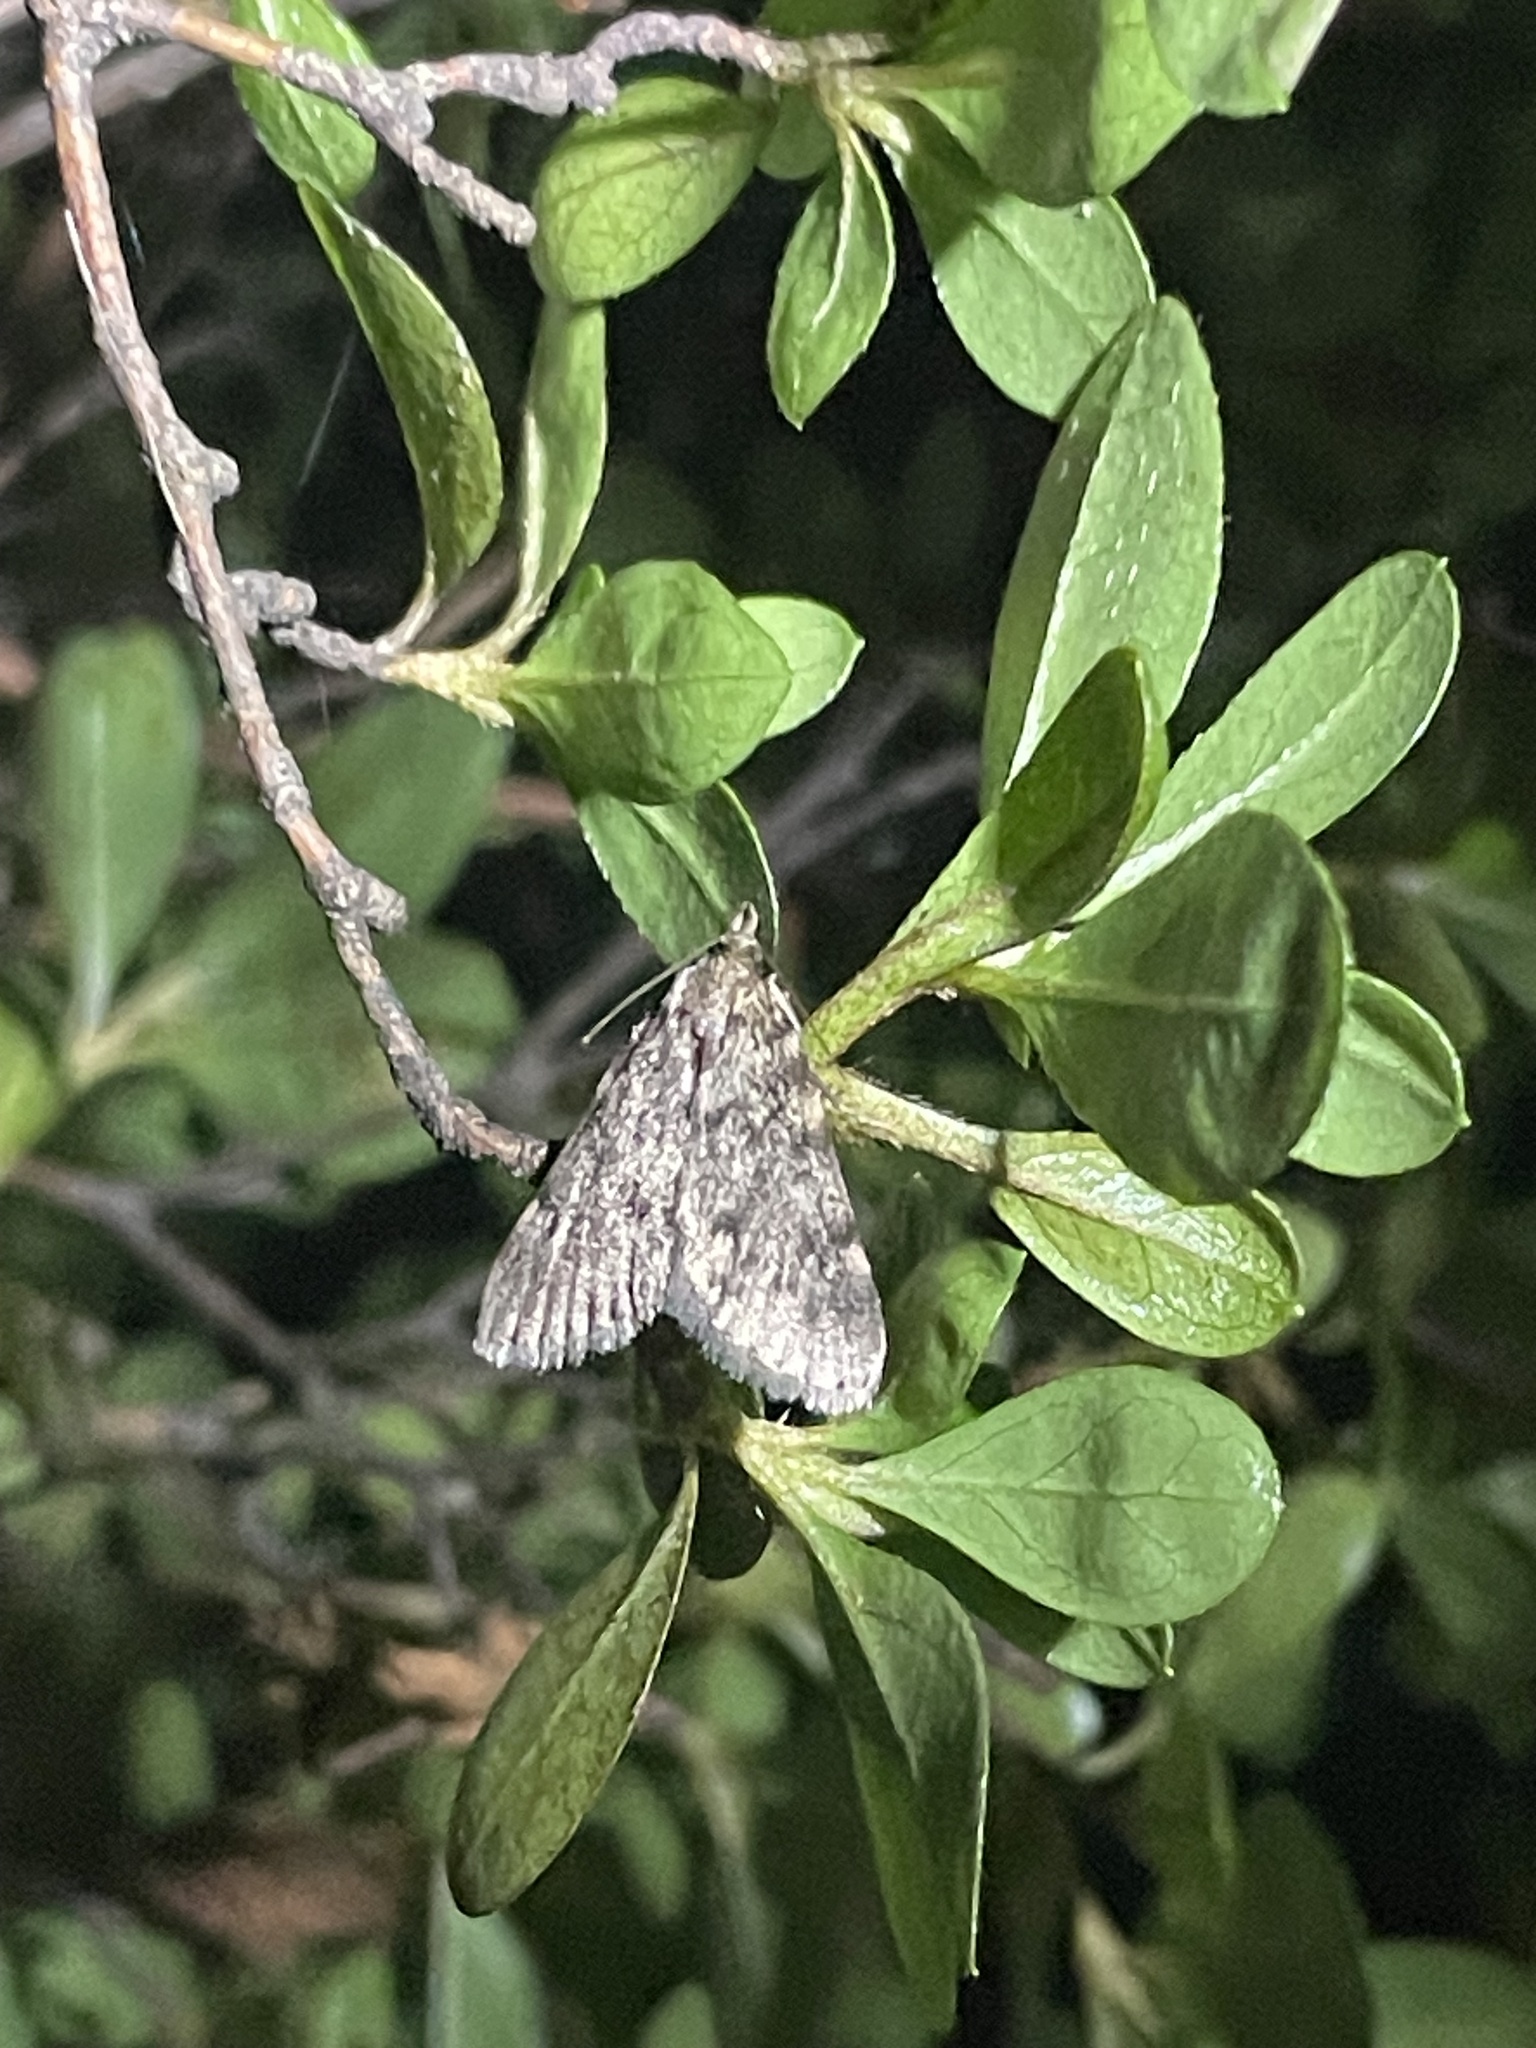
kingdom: Animalia
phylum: Arthropoda
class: Insecta
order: Lepidoptera
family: Pyralidae
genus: Aglossa
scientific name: Aglossa pinguinalis
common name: Large tabby
